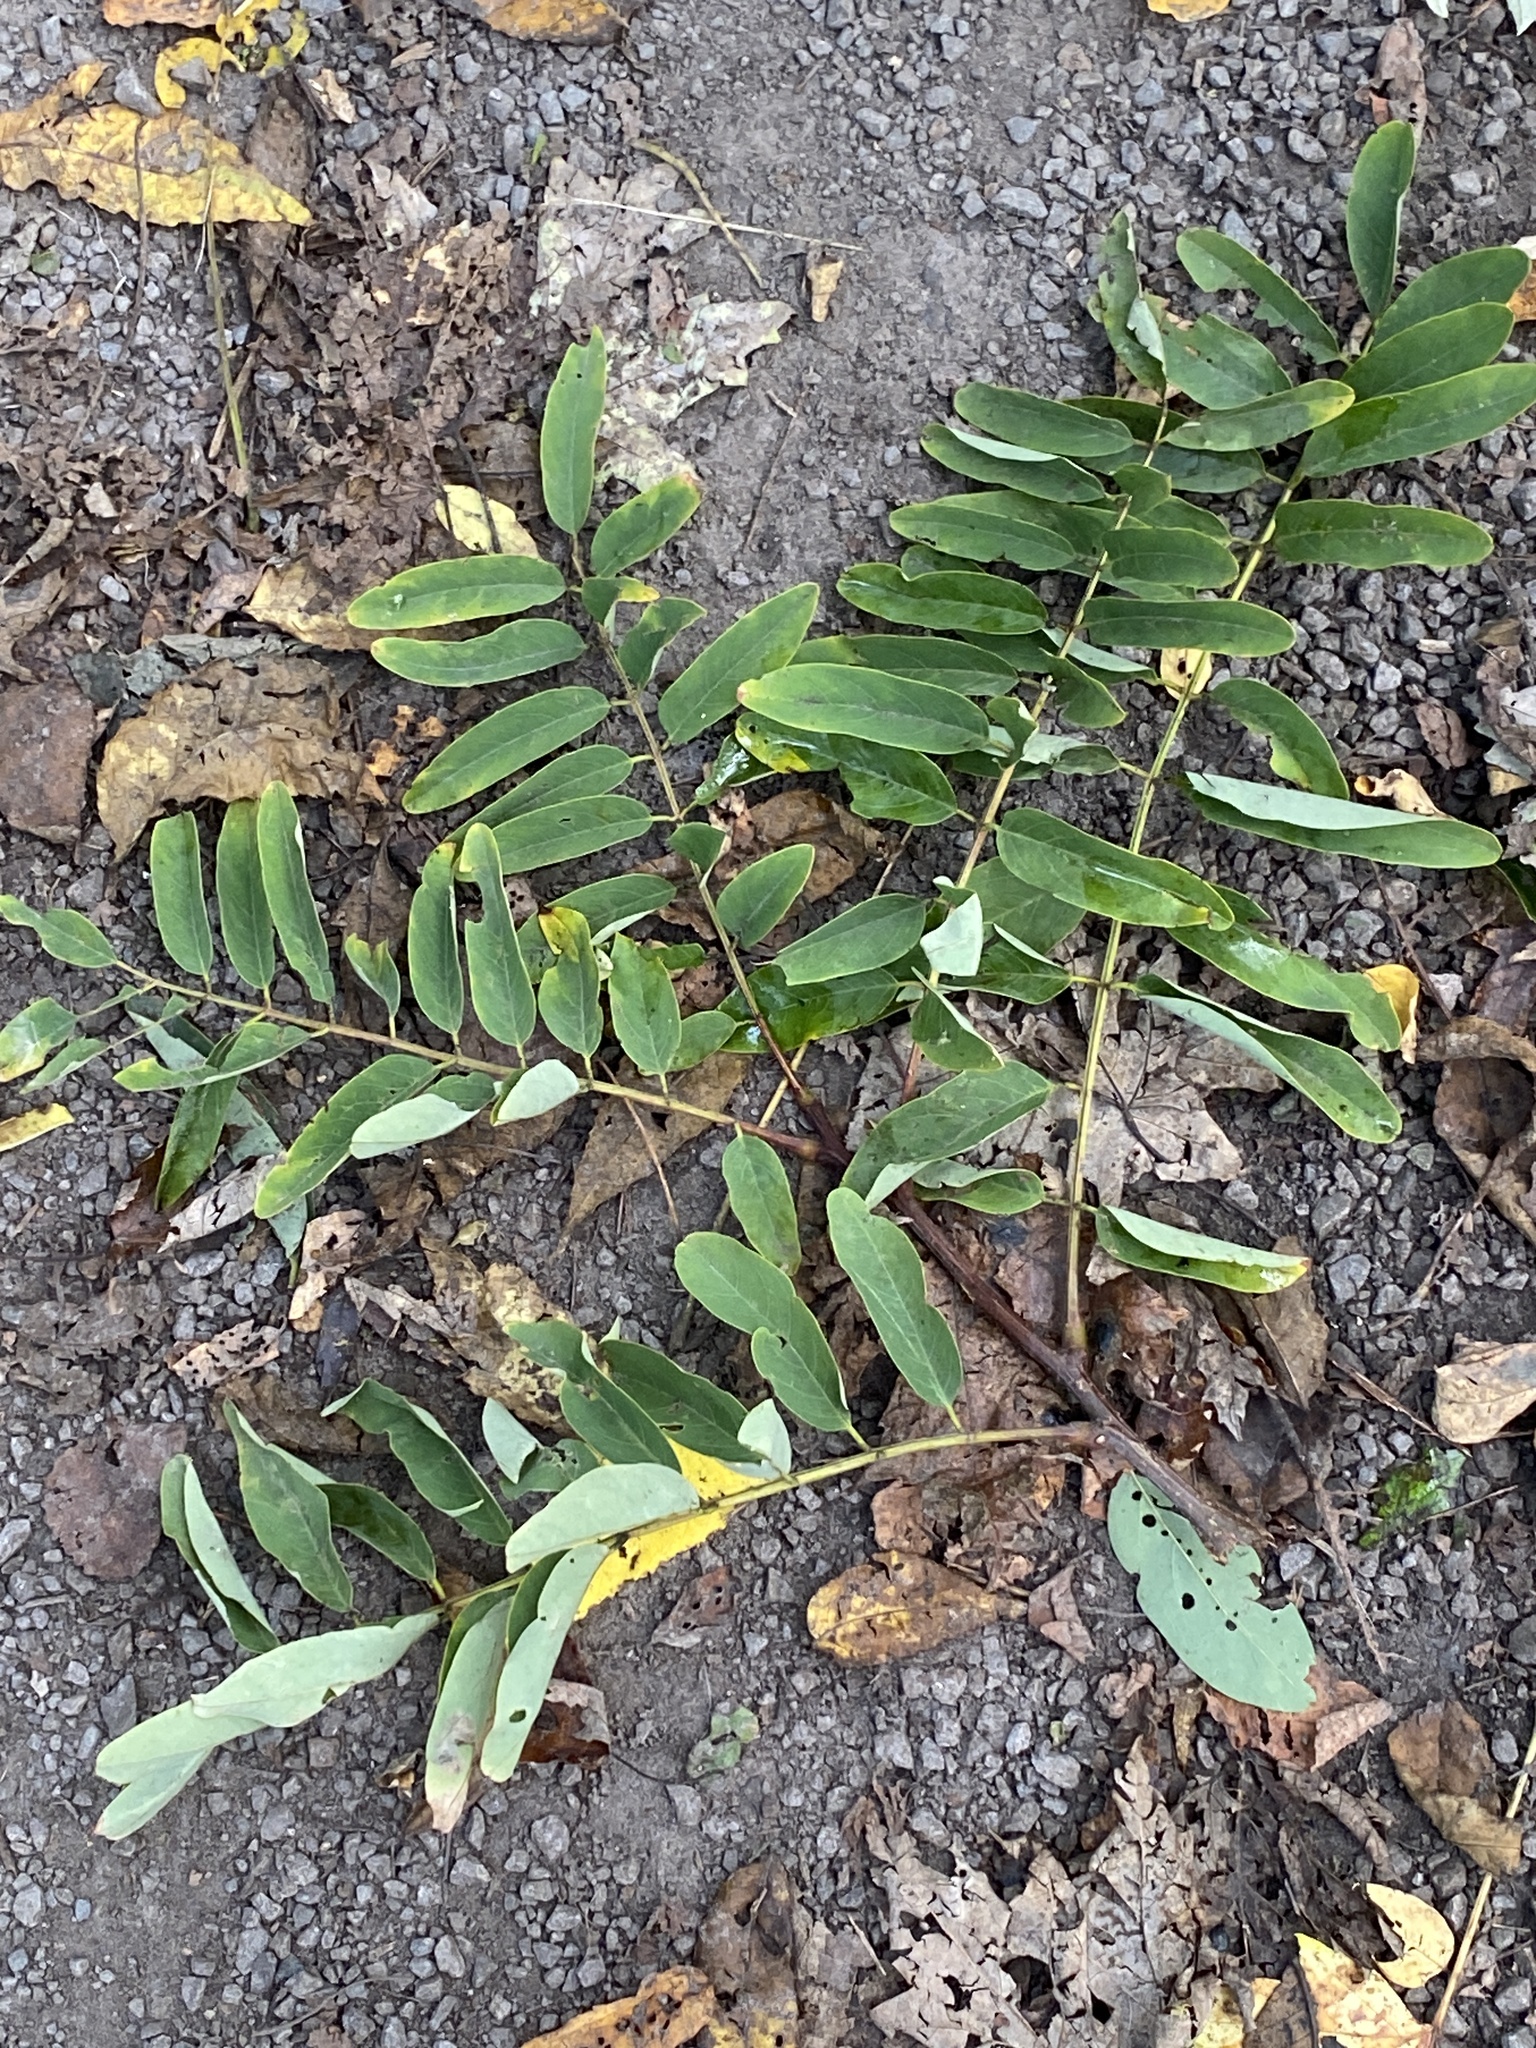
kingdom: Plantae
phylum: Tracheophyta
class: Magnoliopsida
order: Fabales
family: Fabaceae
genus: Robinia
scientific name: Robinia pseudoacacia
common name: Black locust
